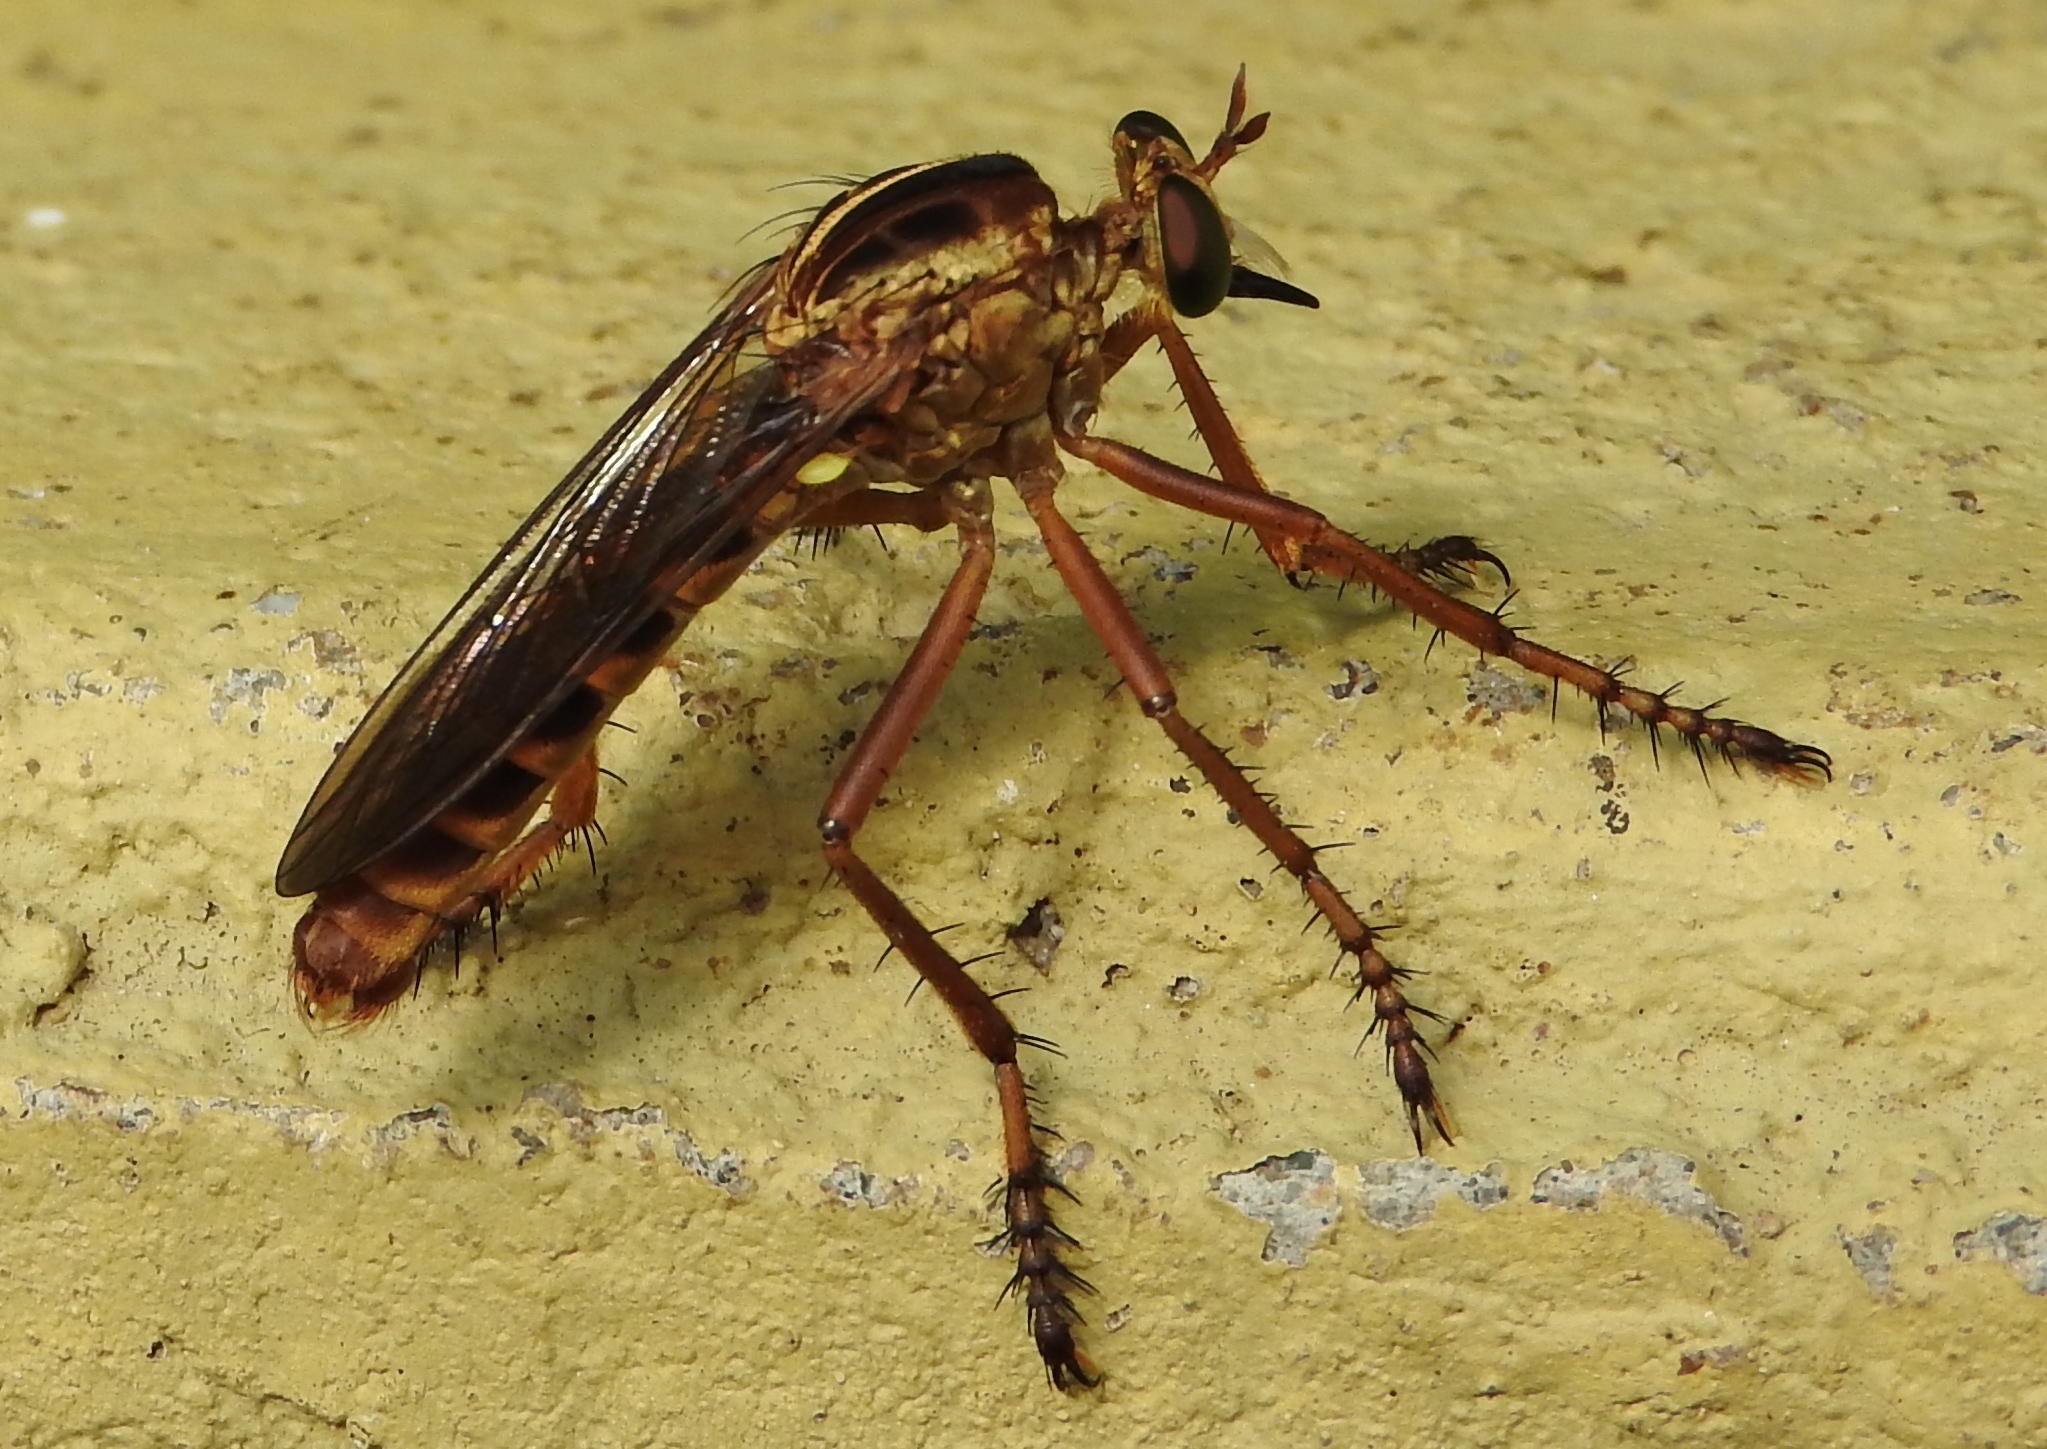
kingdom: Animalia
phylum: Arthropoda
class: Insecta
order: Diptera
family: Asilidae
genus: Diogmites
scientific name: Diogmites angustipennis
